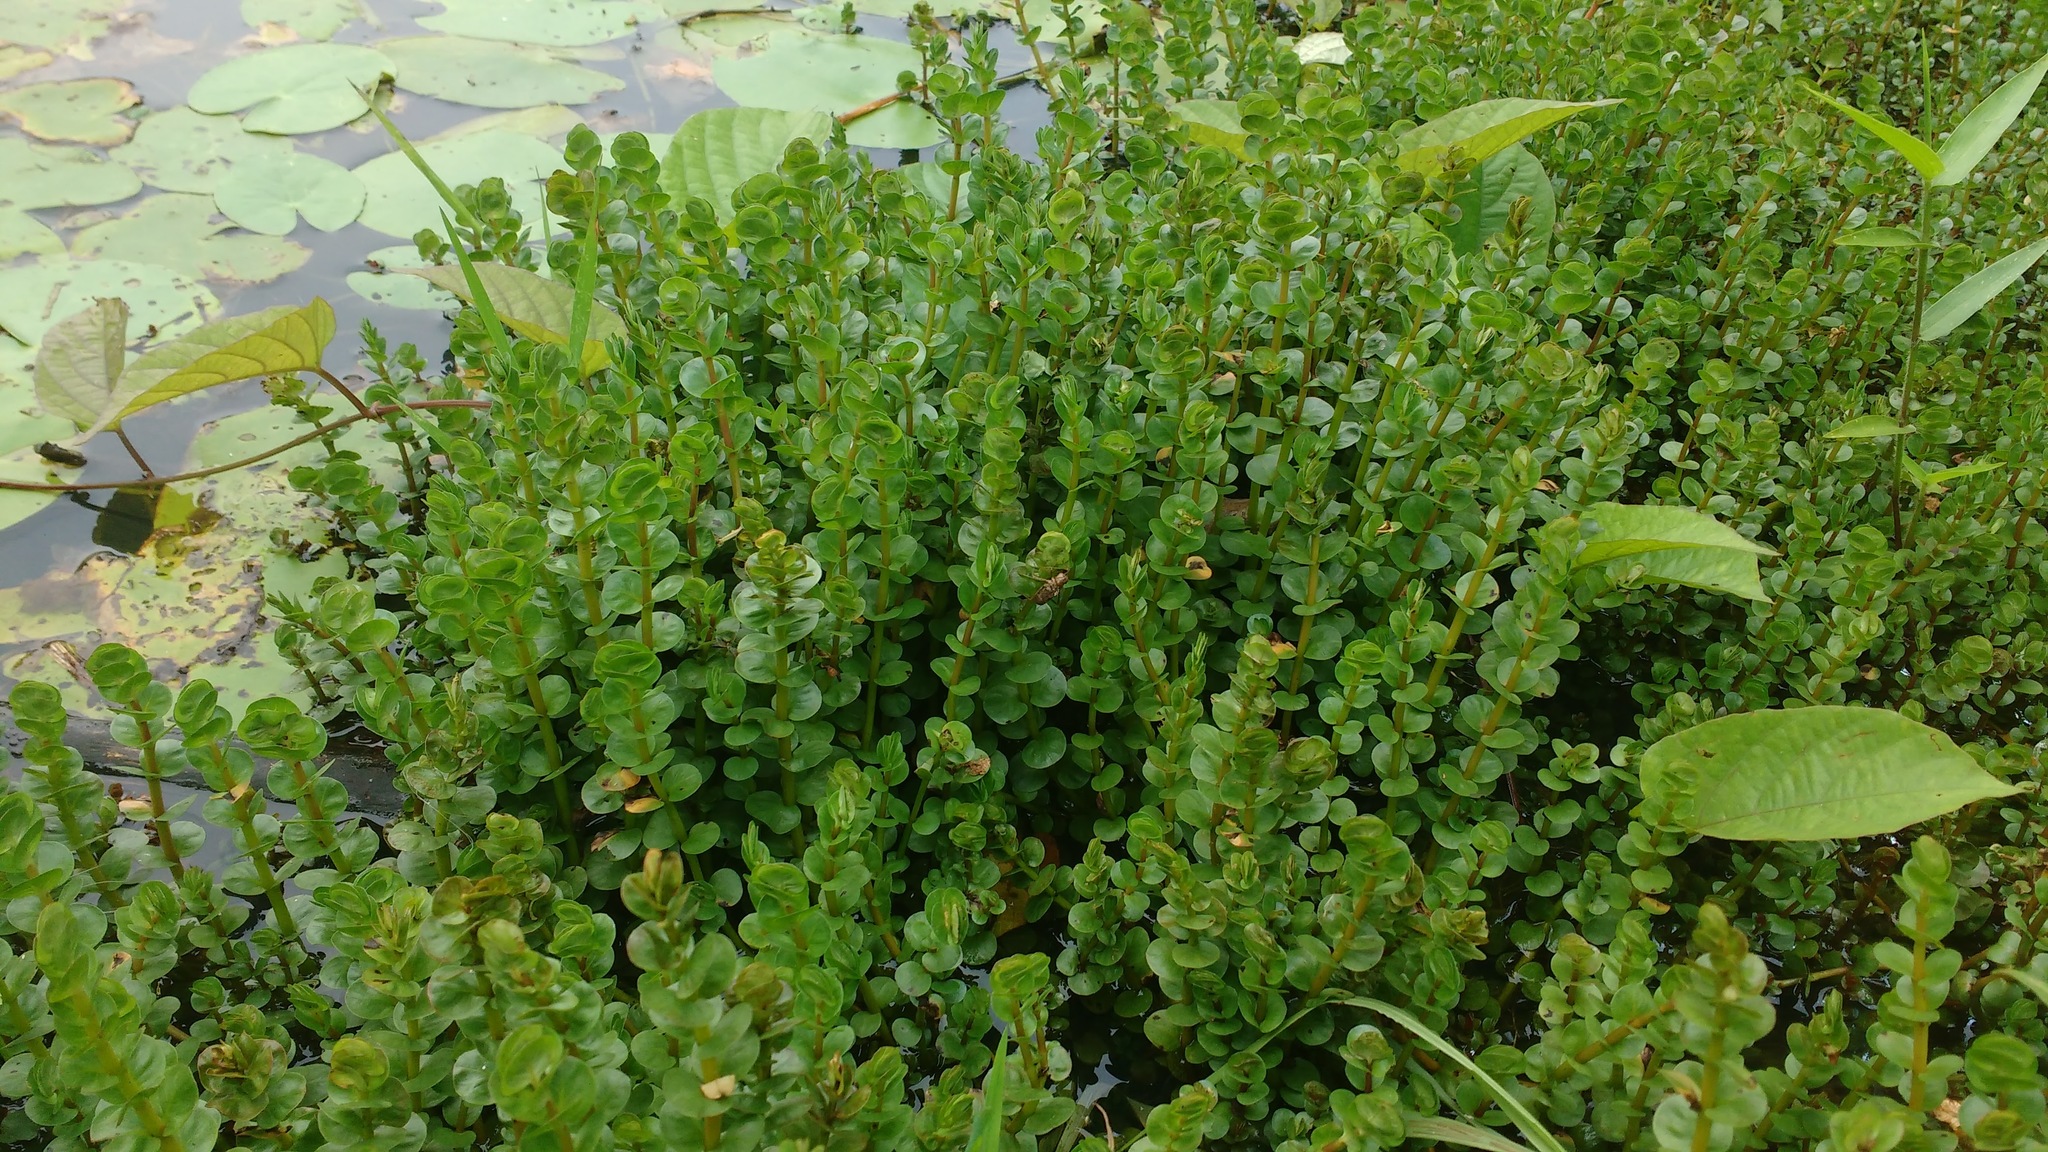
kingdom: Plantae
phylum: Tracheophyta
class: Magnoliopsida
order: Myrtales
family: Lythraceae
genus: Rotala
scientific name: Rotala rotundifolia
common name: Roundleaf toothcup
